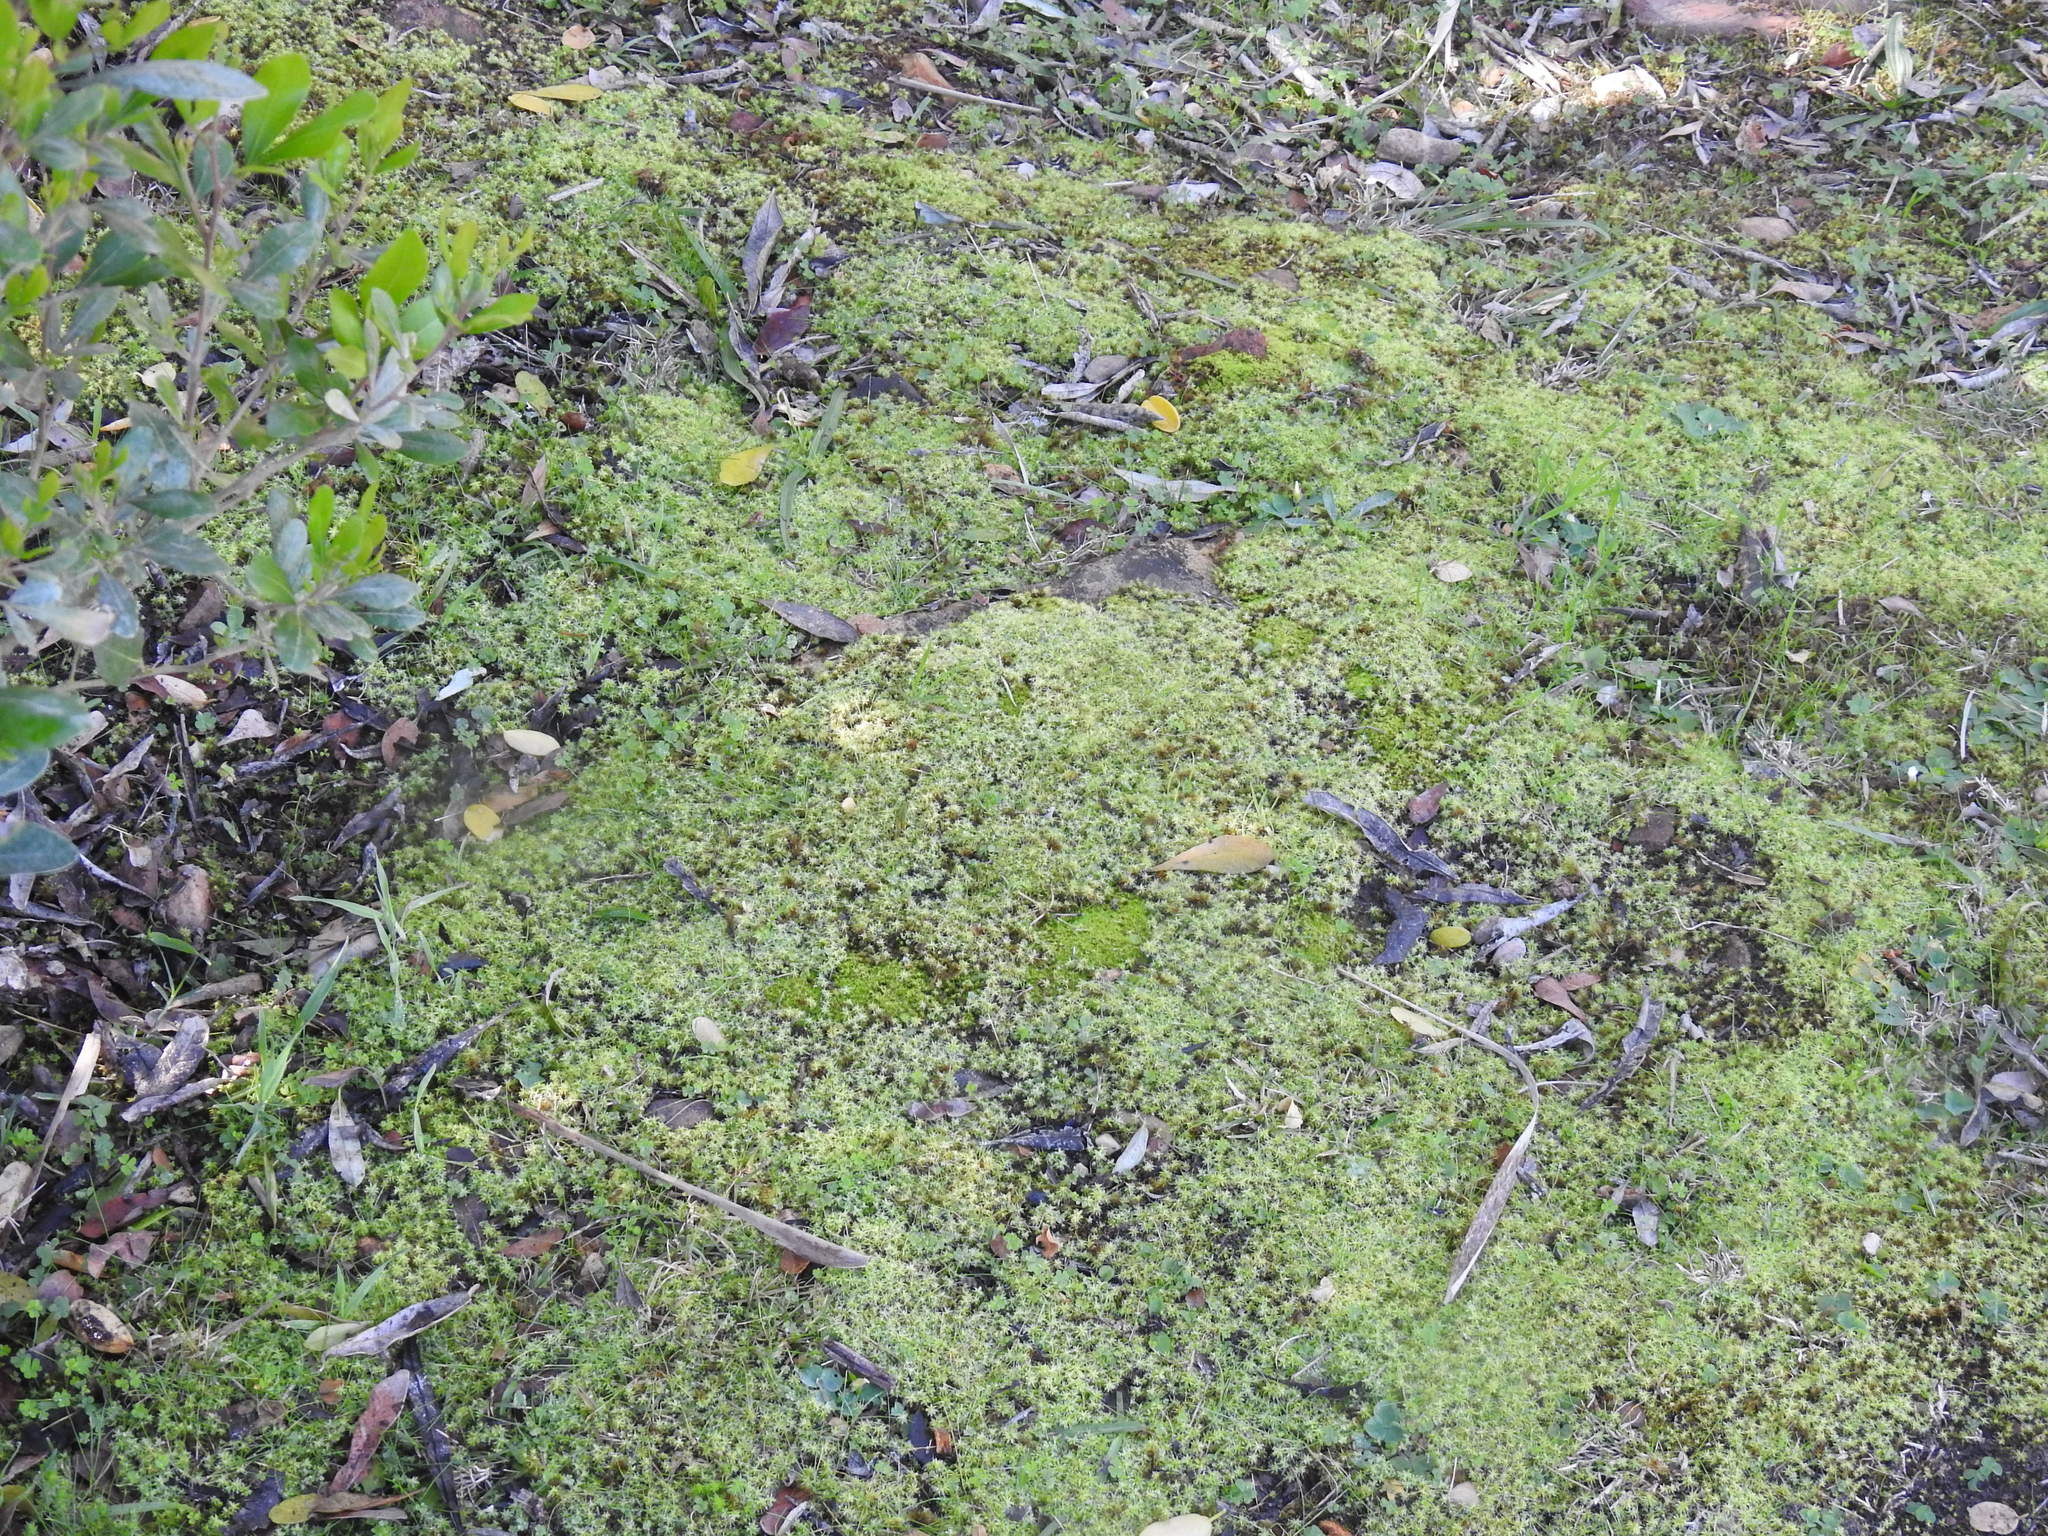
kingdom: Plantae
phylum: Bryophyta
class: Bryopsida
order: Pottiales
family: Pottiaceae
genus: Pseudocrossidium
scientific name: Pseudocrossidium crinitum
